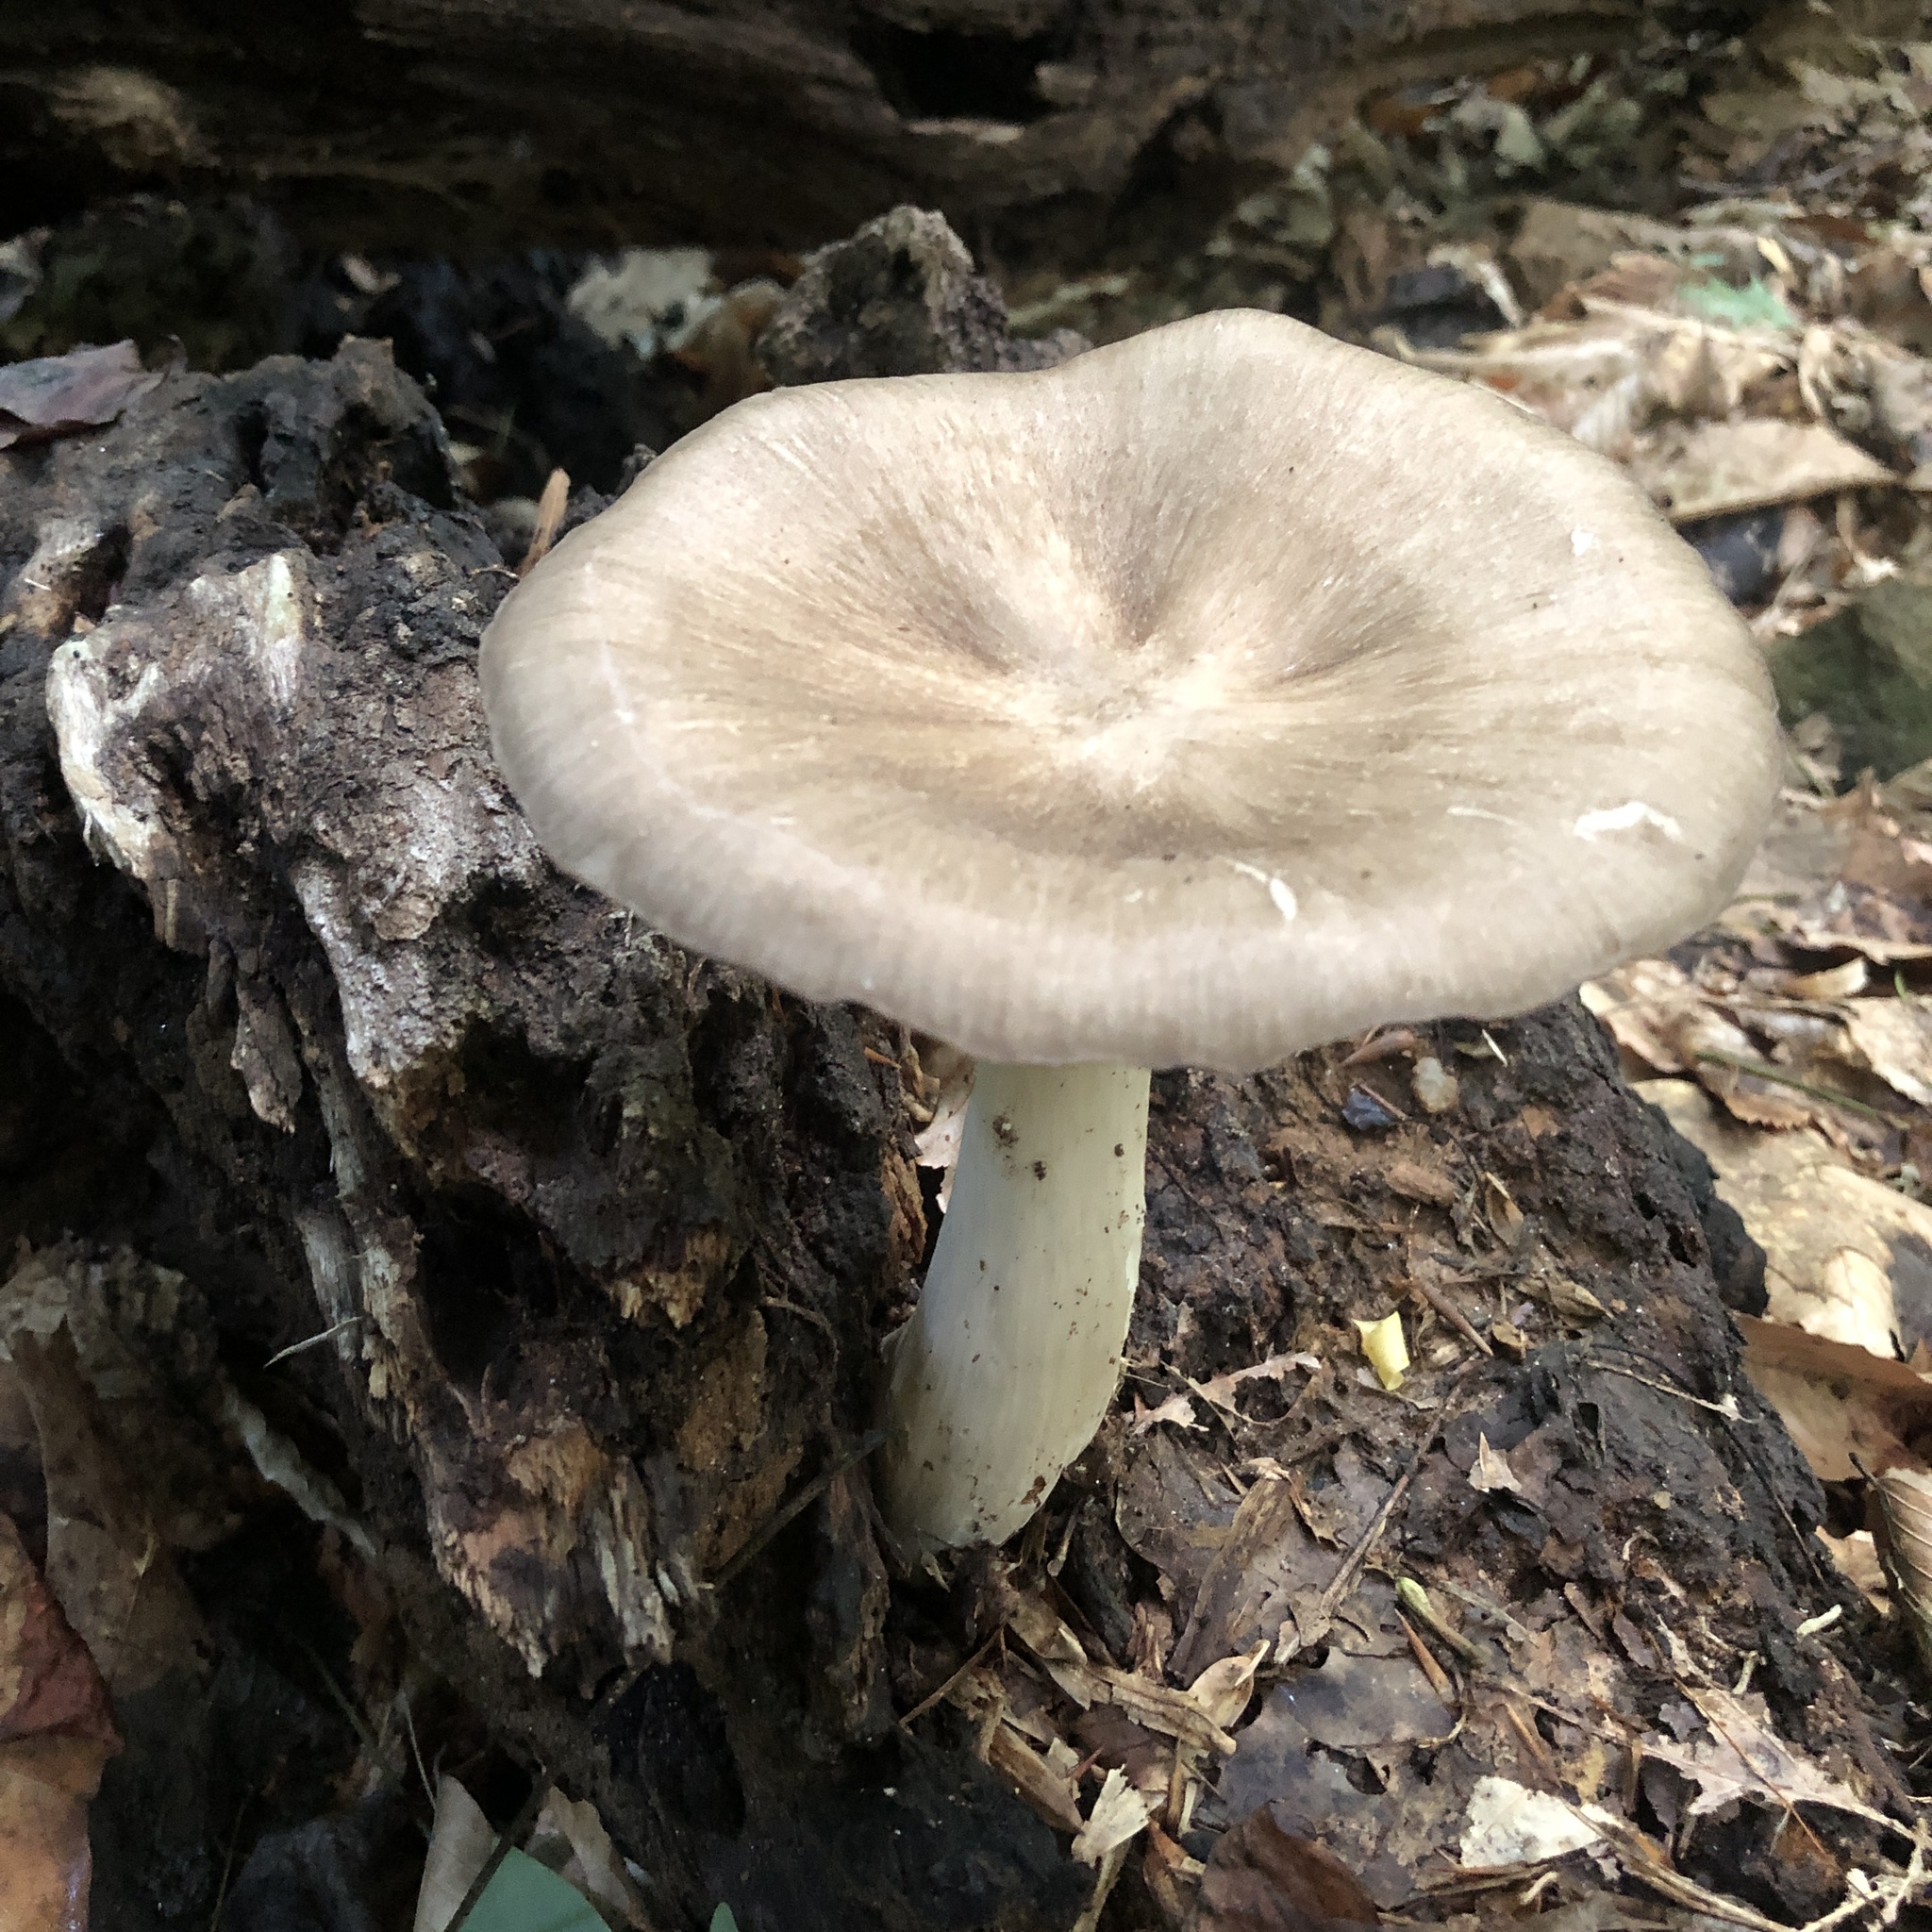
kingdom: Fungi
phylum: Basidiomycota
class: Agaricomycetes
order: Agaricales
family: Tricholomataceae
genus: Megacollybia
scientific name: Megacollybia rodmanii
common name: Eastern american platterful mushroom
